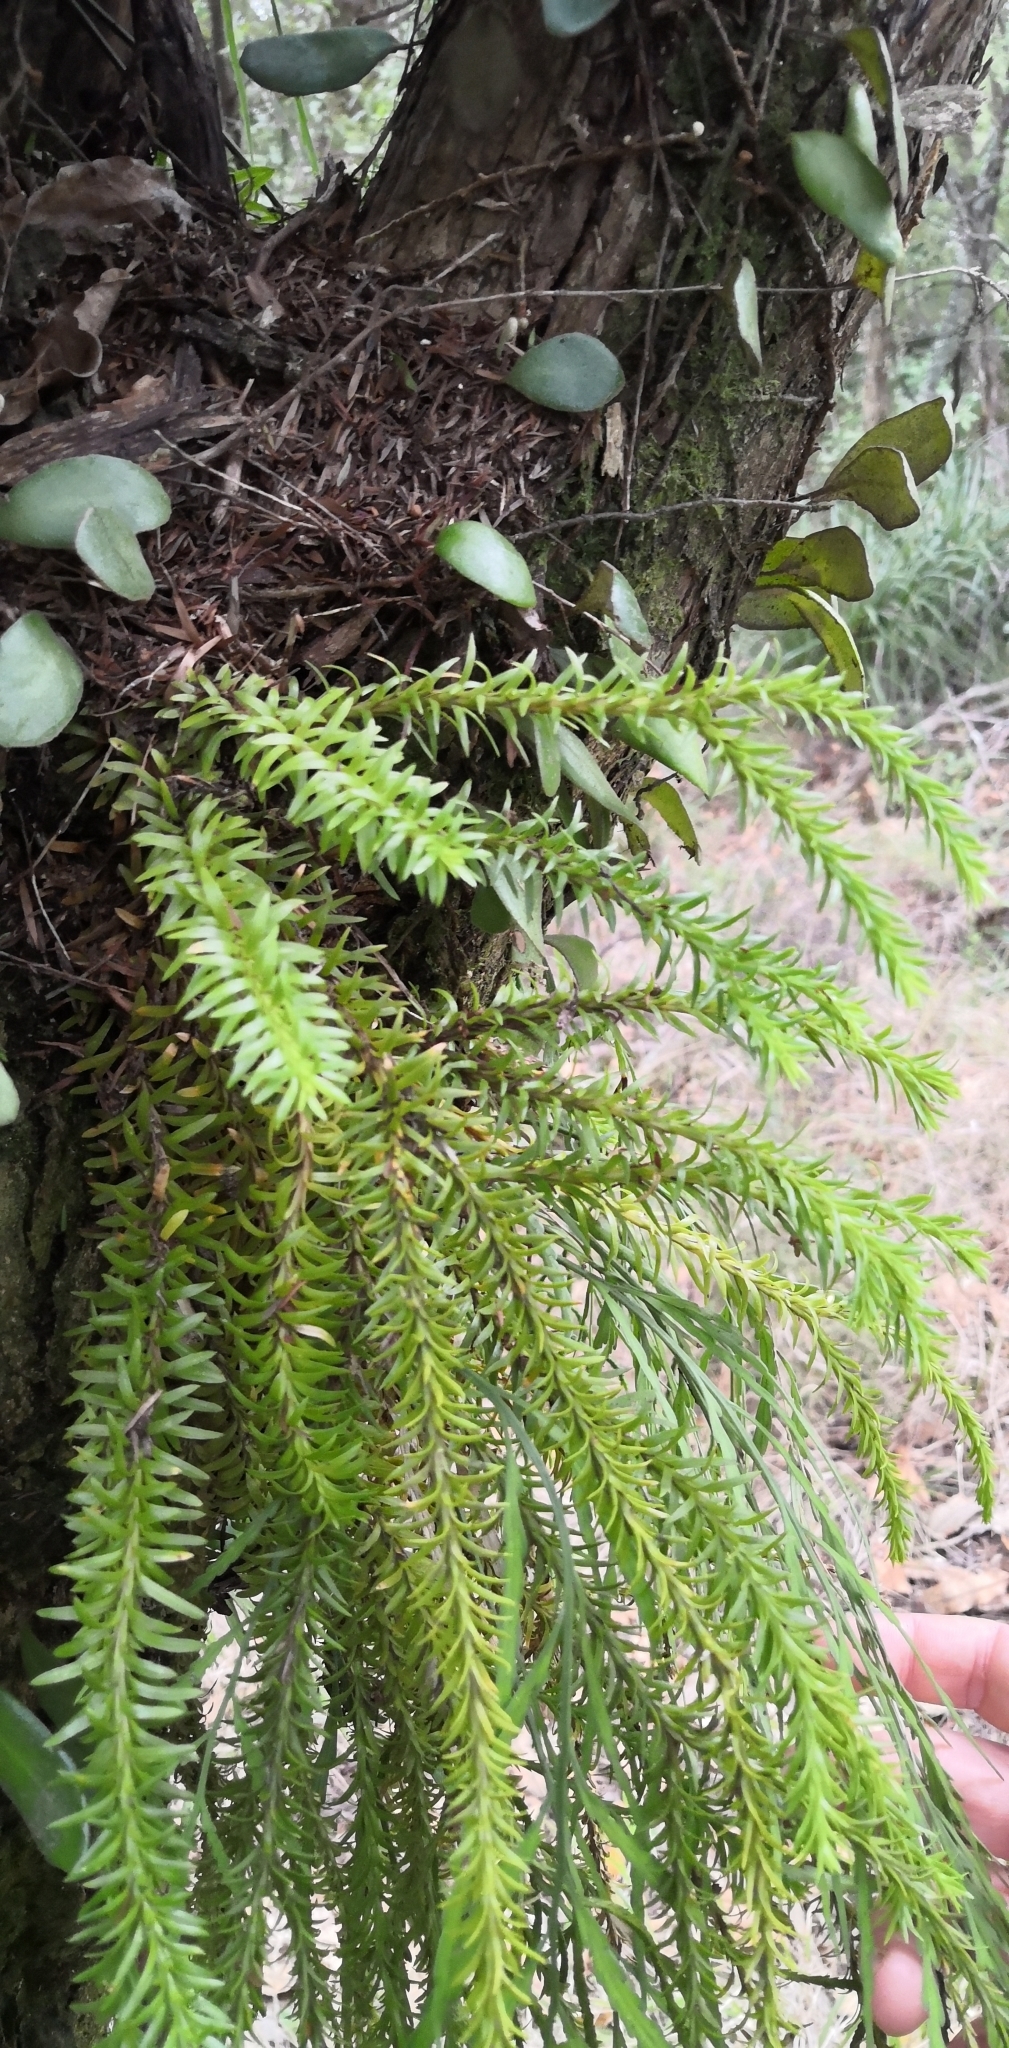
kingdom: Plantae
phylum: Tracheophyta
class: Lycopodiopsida
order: Lycopodiales
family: Lycopodiaceae
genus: Phlegmariurus
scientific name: Phlegmariurus billardierei
